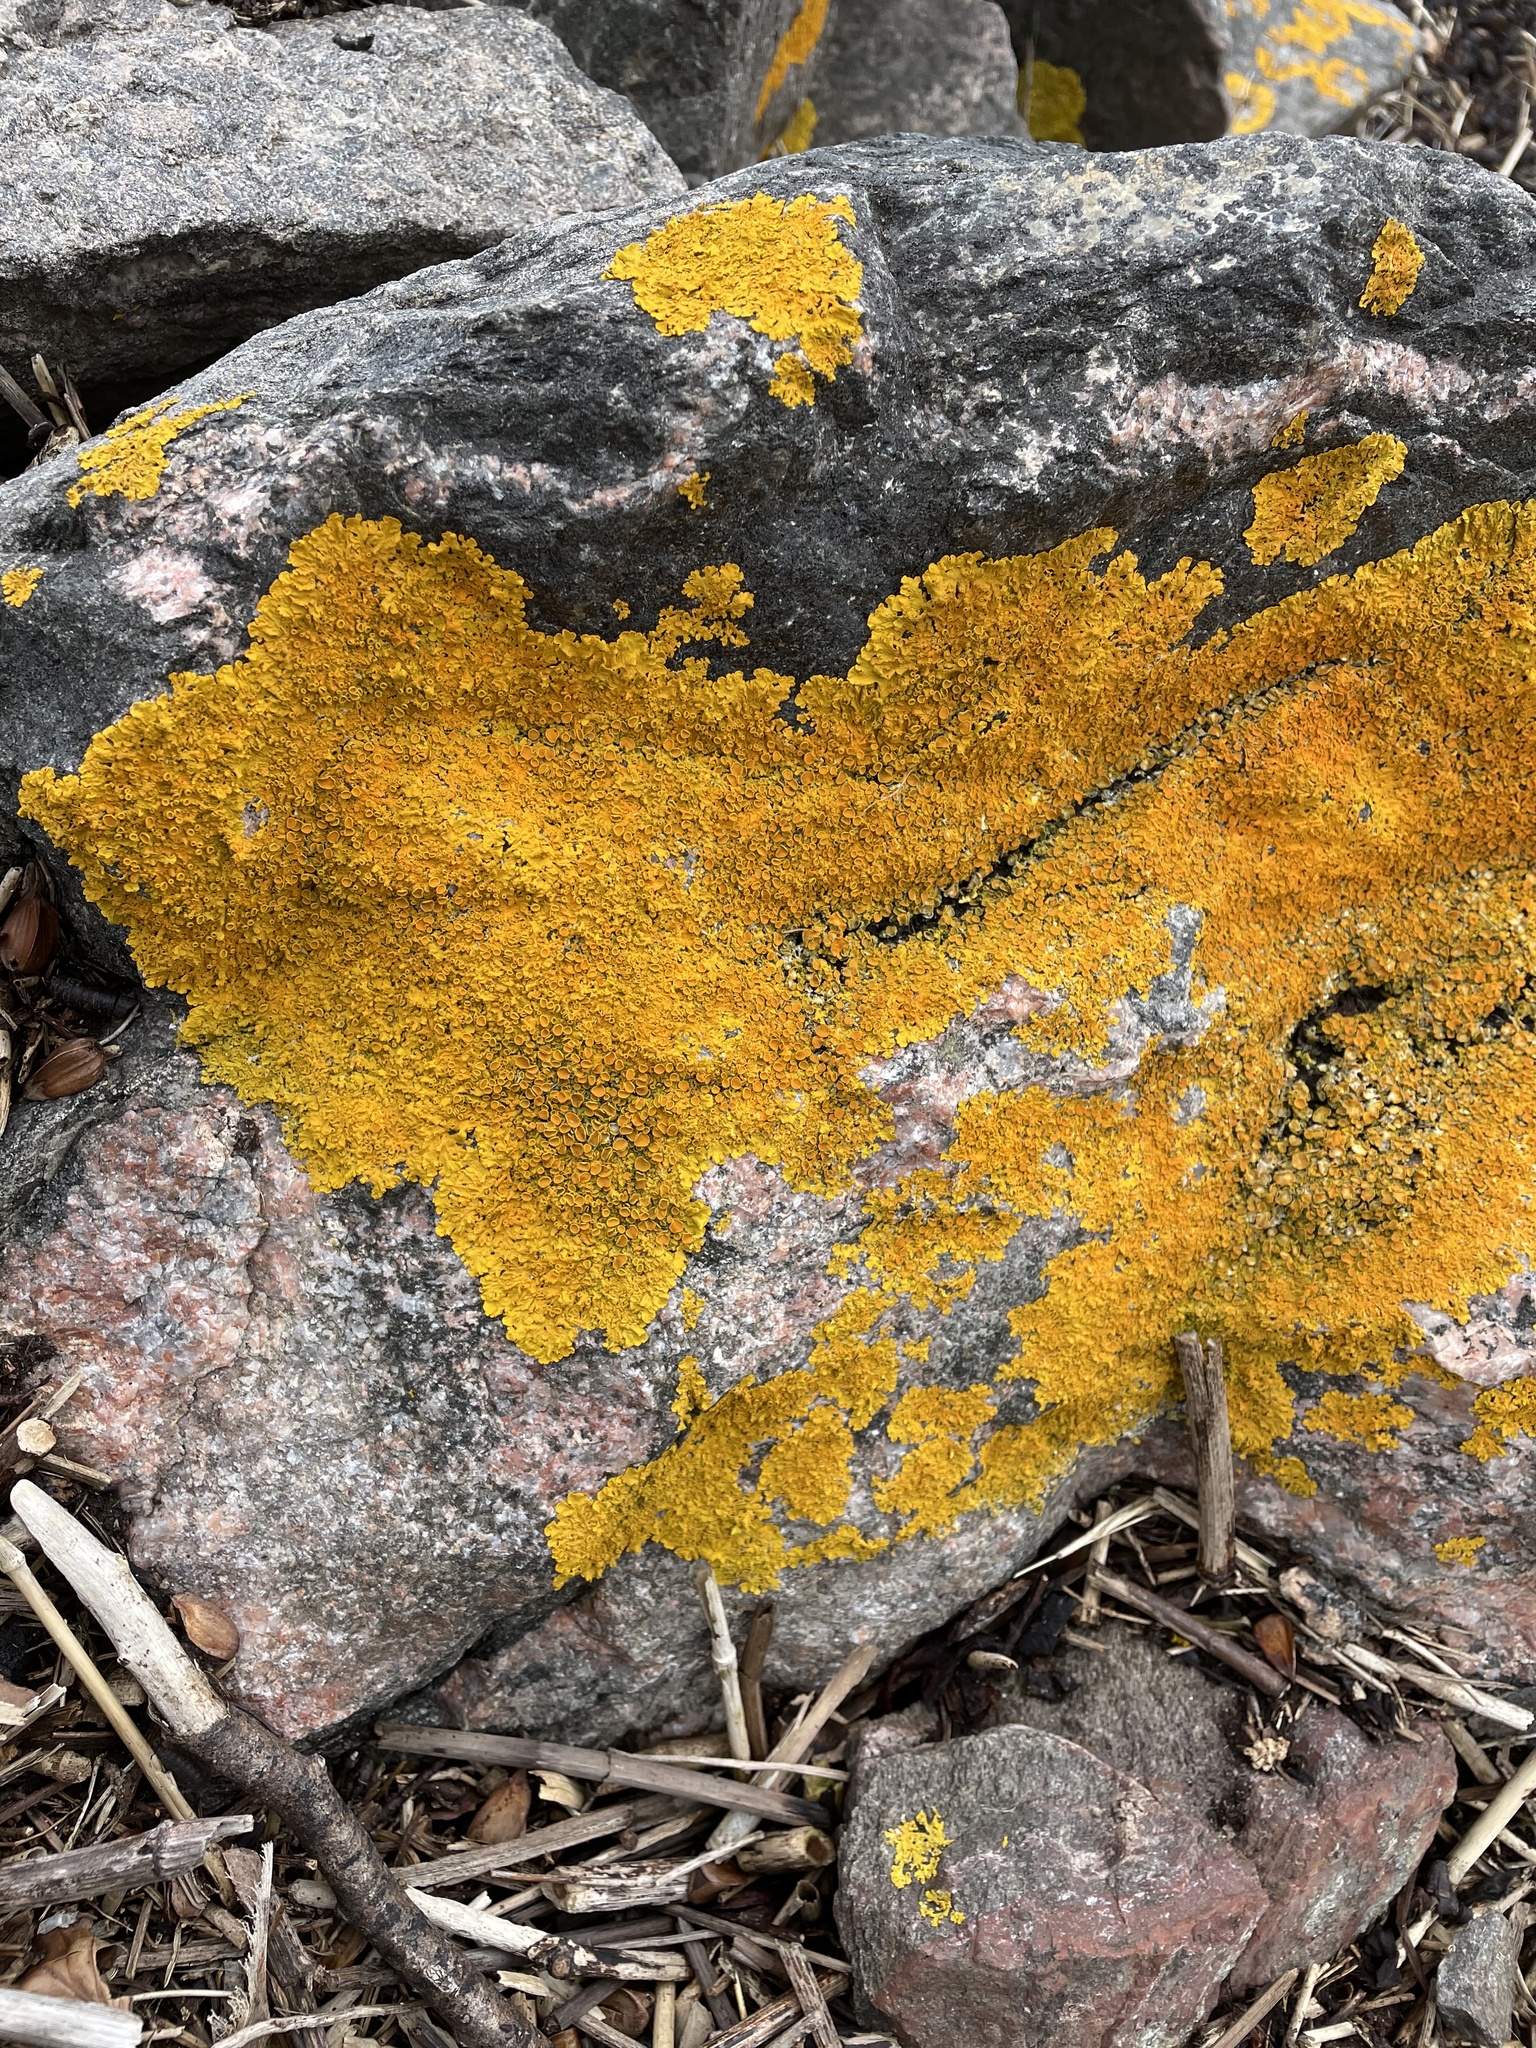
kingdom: Fungi
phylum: Ascomycota
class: Lecanoromycetes
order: Teloschistales
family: Teloschistaceae
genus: Xanthoria
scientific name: Xanthoria parietina
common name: Common orange lichen
